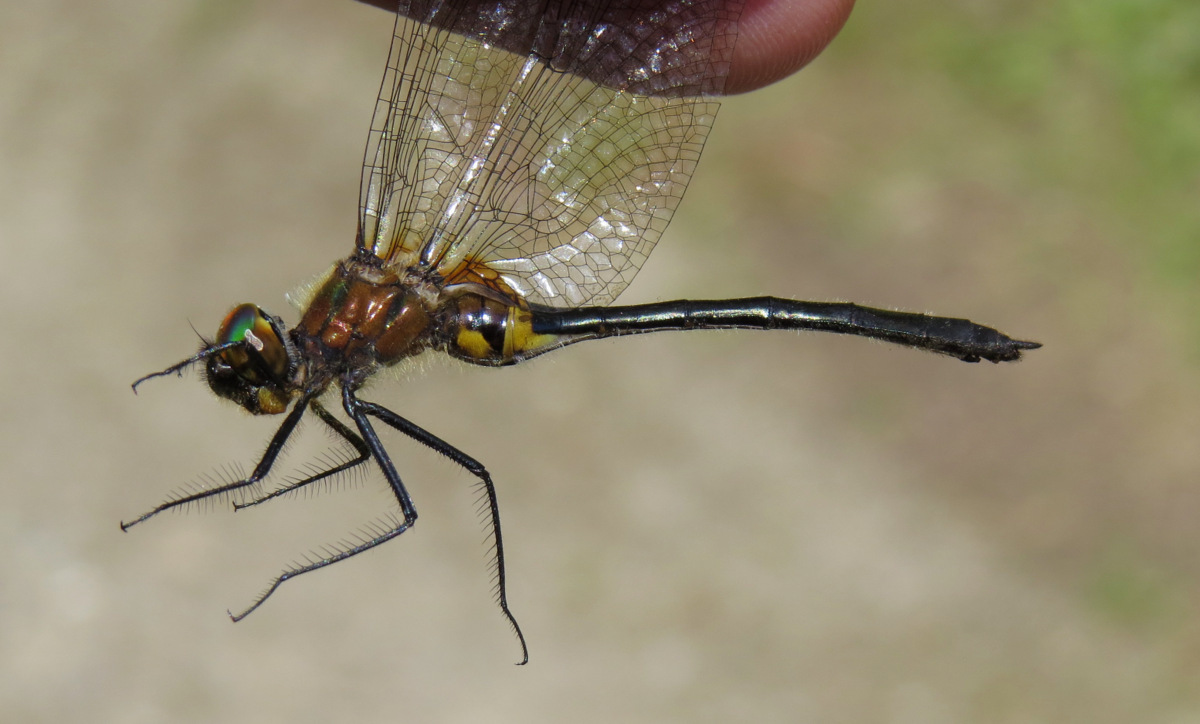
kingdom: Animalia
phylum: Arthropoda
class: Insecta
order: Odonata
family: Corduliidae
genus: Dorocordulia
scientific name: Dorocordulia libera
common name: Racket-tailed emerald
